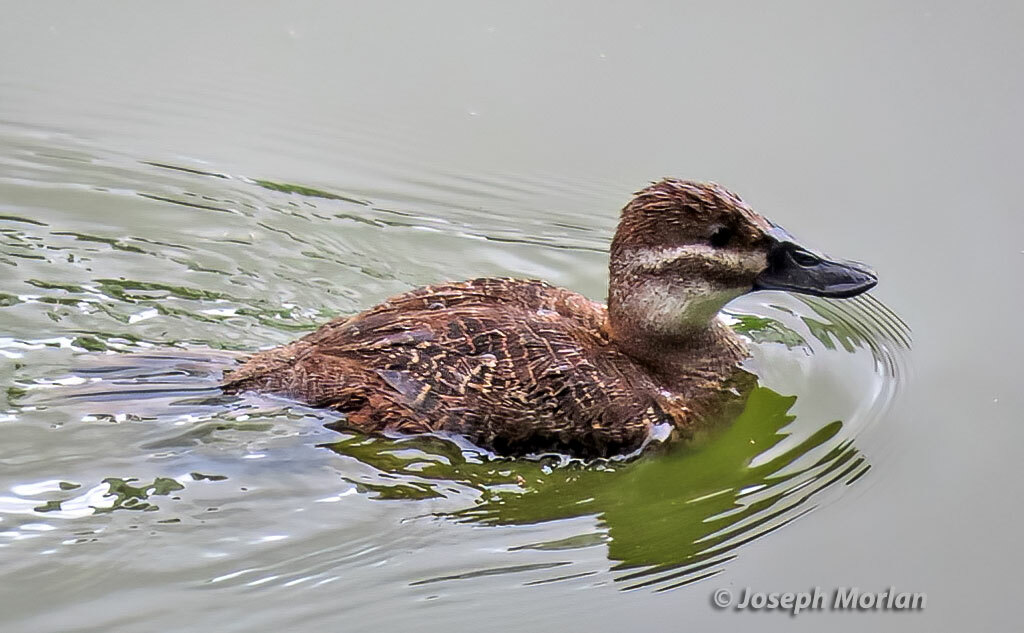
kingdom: Animalia
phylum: Chordata
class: Aves
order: Anseriformes
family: Anatidae
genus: Oxyura
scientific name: Oxyura vittata
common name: Lake duck
